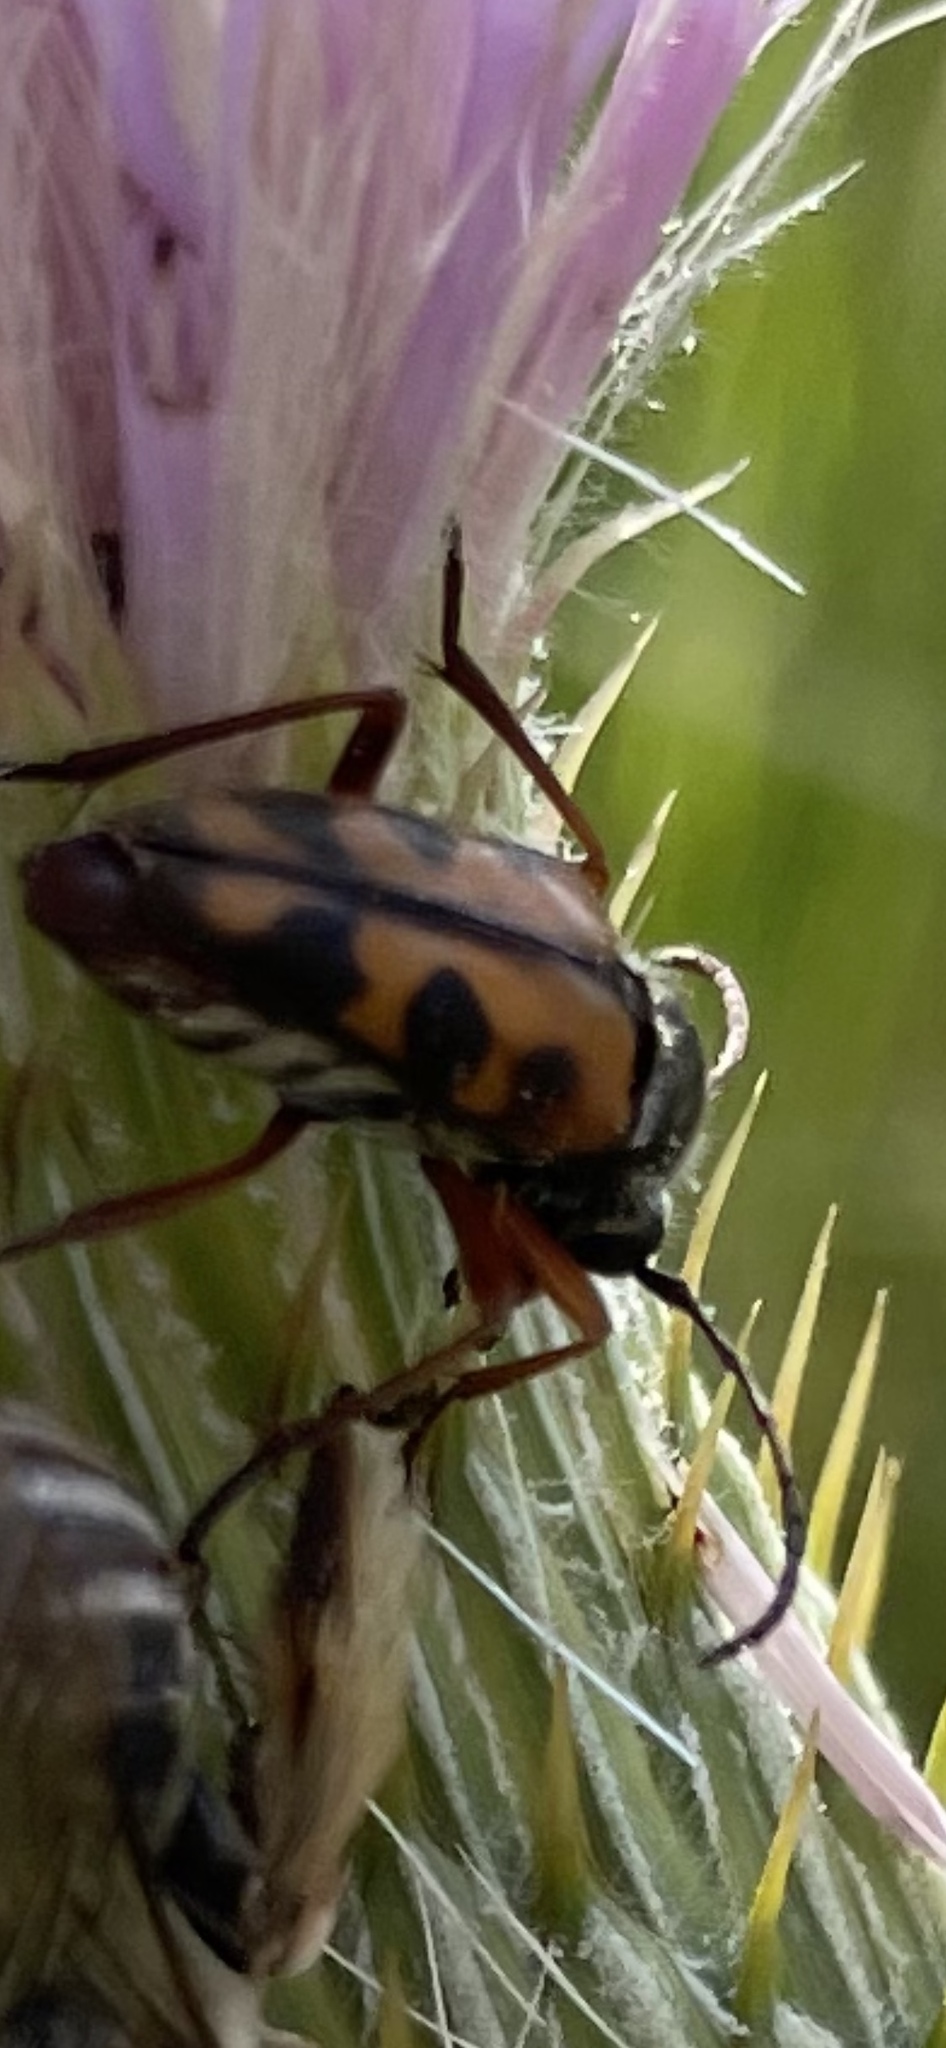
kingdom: Animalia
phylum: Arthropoda
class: Insecta
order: Coleoptera
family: Cerambycidae
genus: Typocerus
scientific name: Typocerus octonotatus
